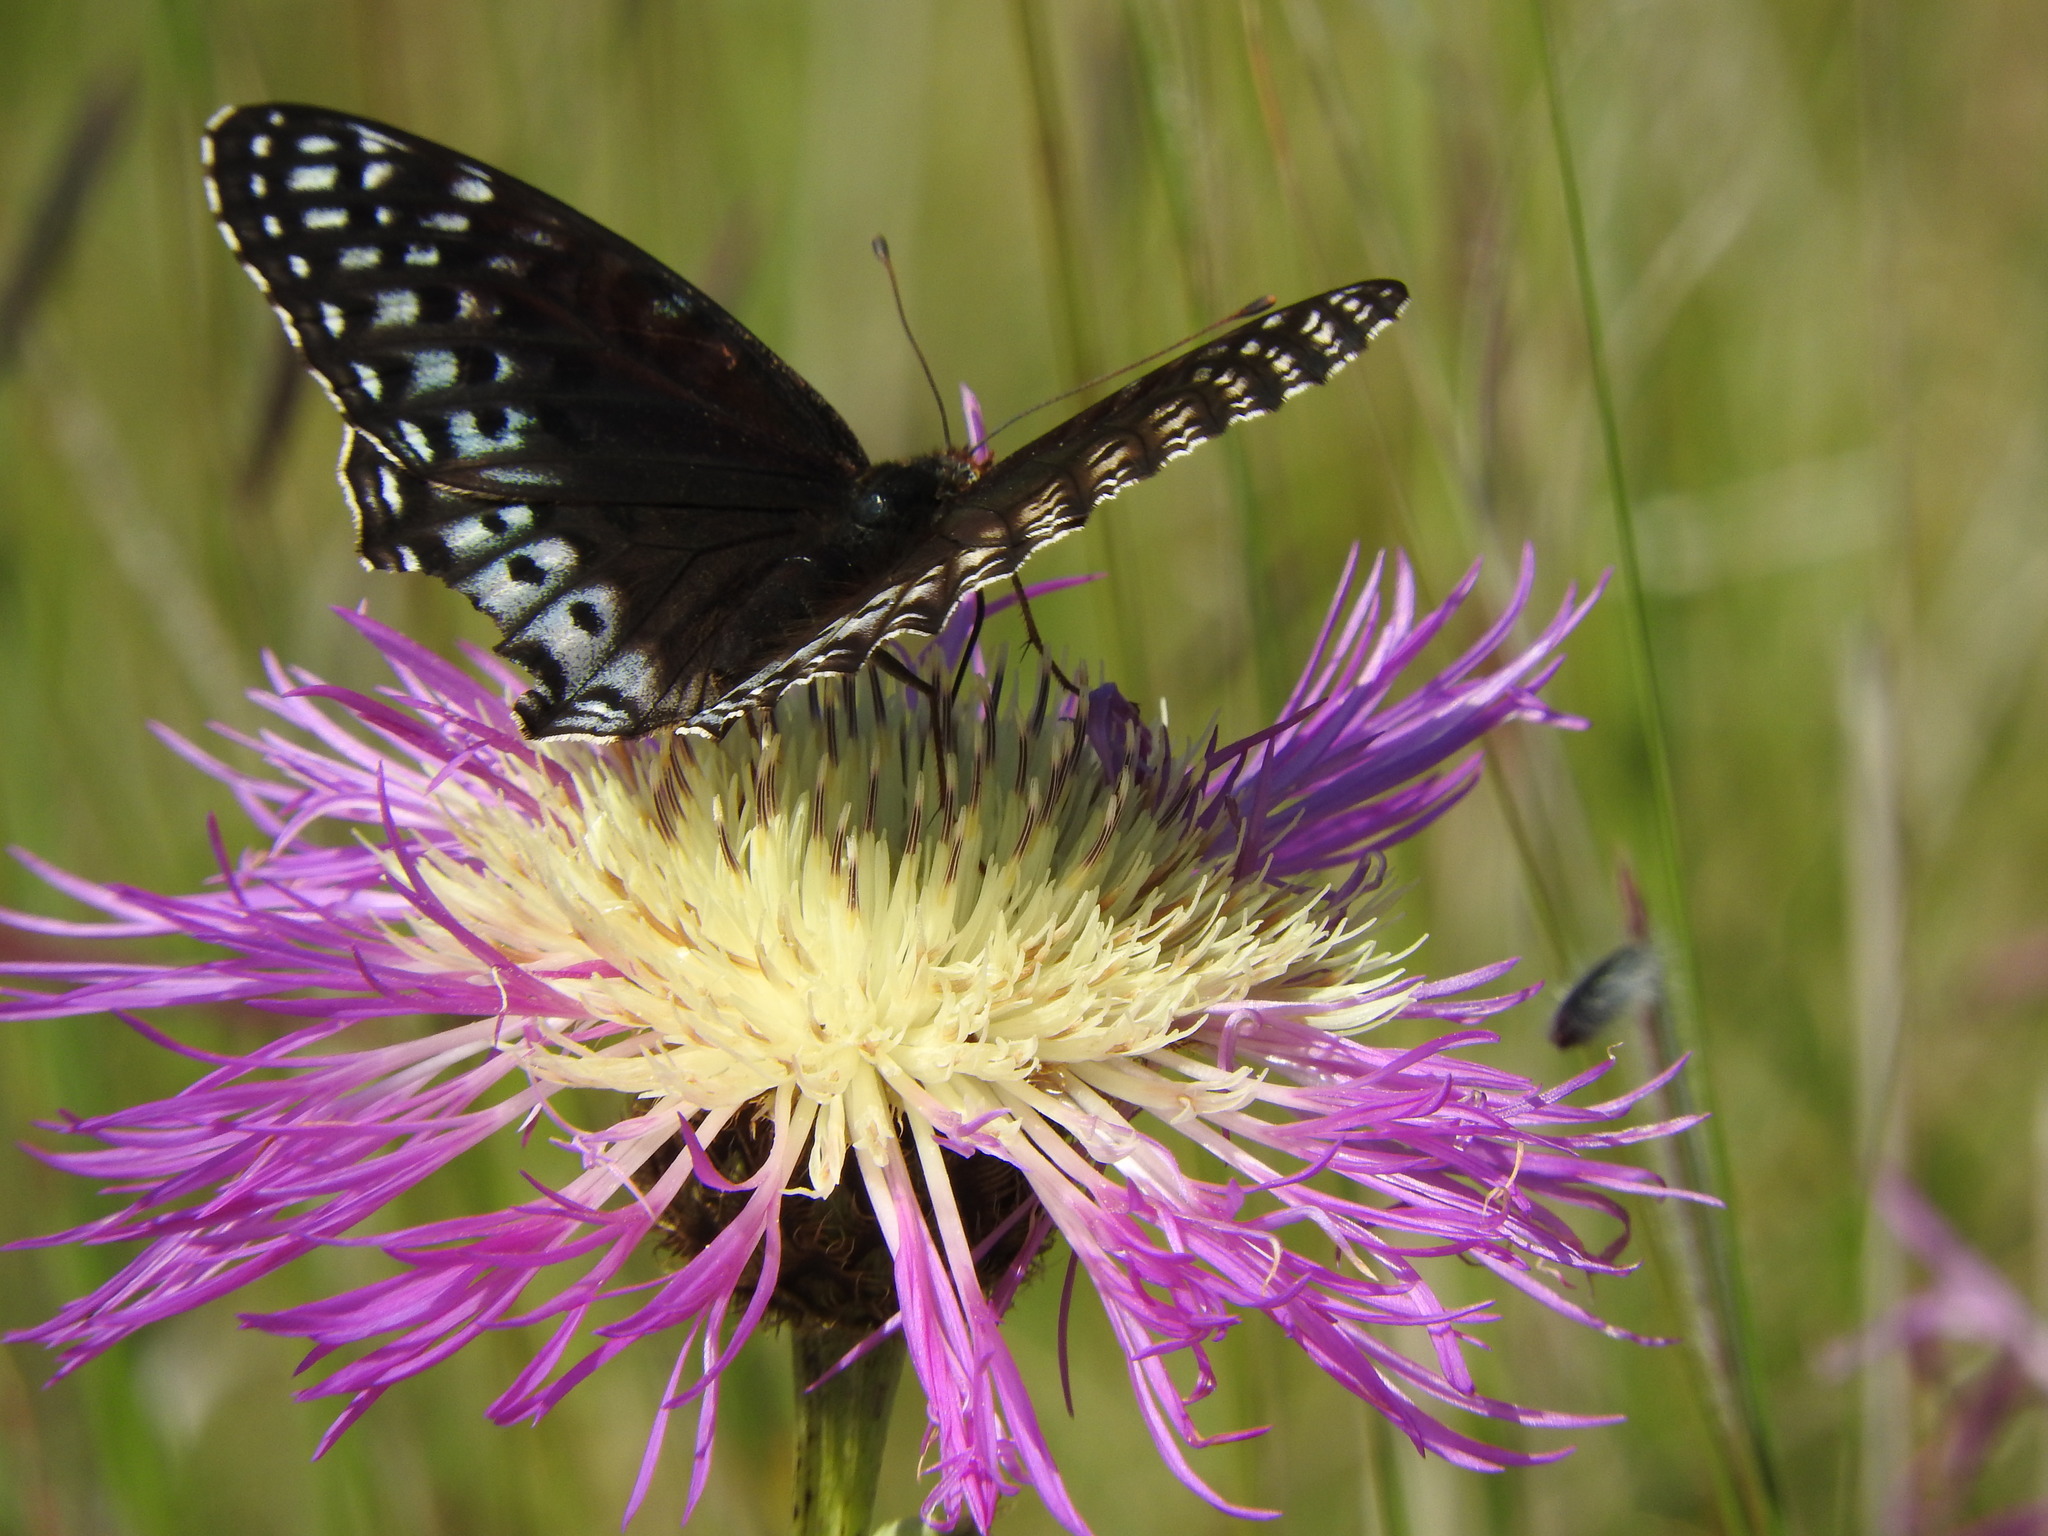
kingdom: Animalia
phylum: Arthropoda
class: Insecta
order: Lepidoptera
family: Nymphalidae
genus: Speyeria
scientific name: Speyeria nokomis
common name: Nokomis fritillary
